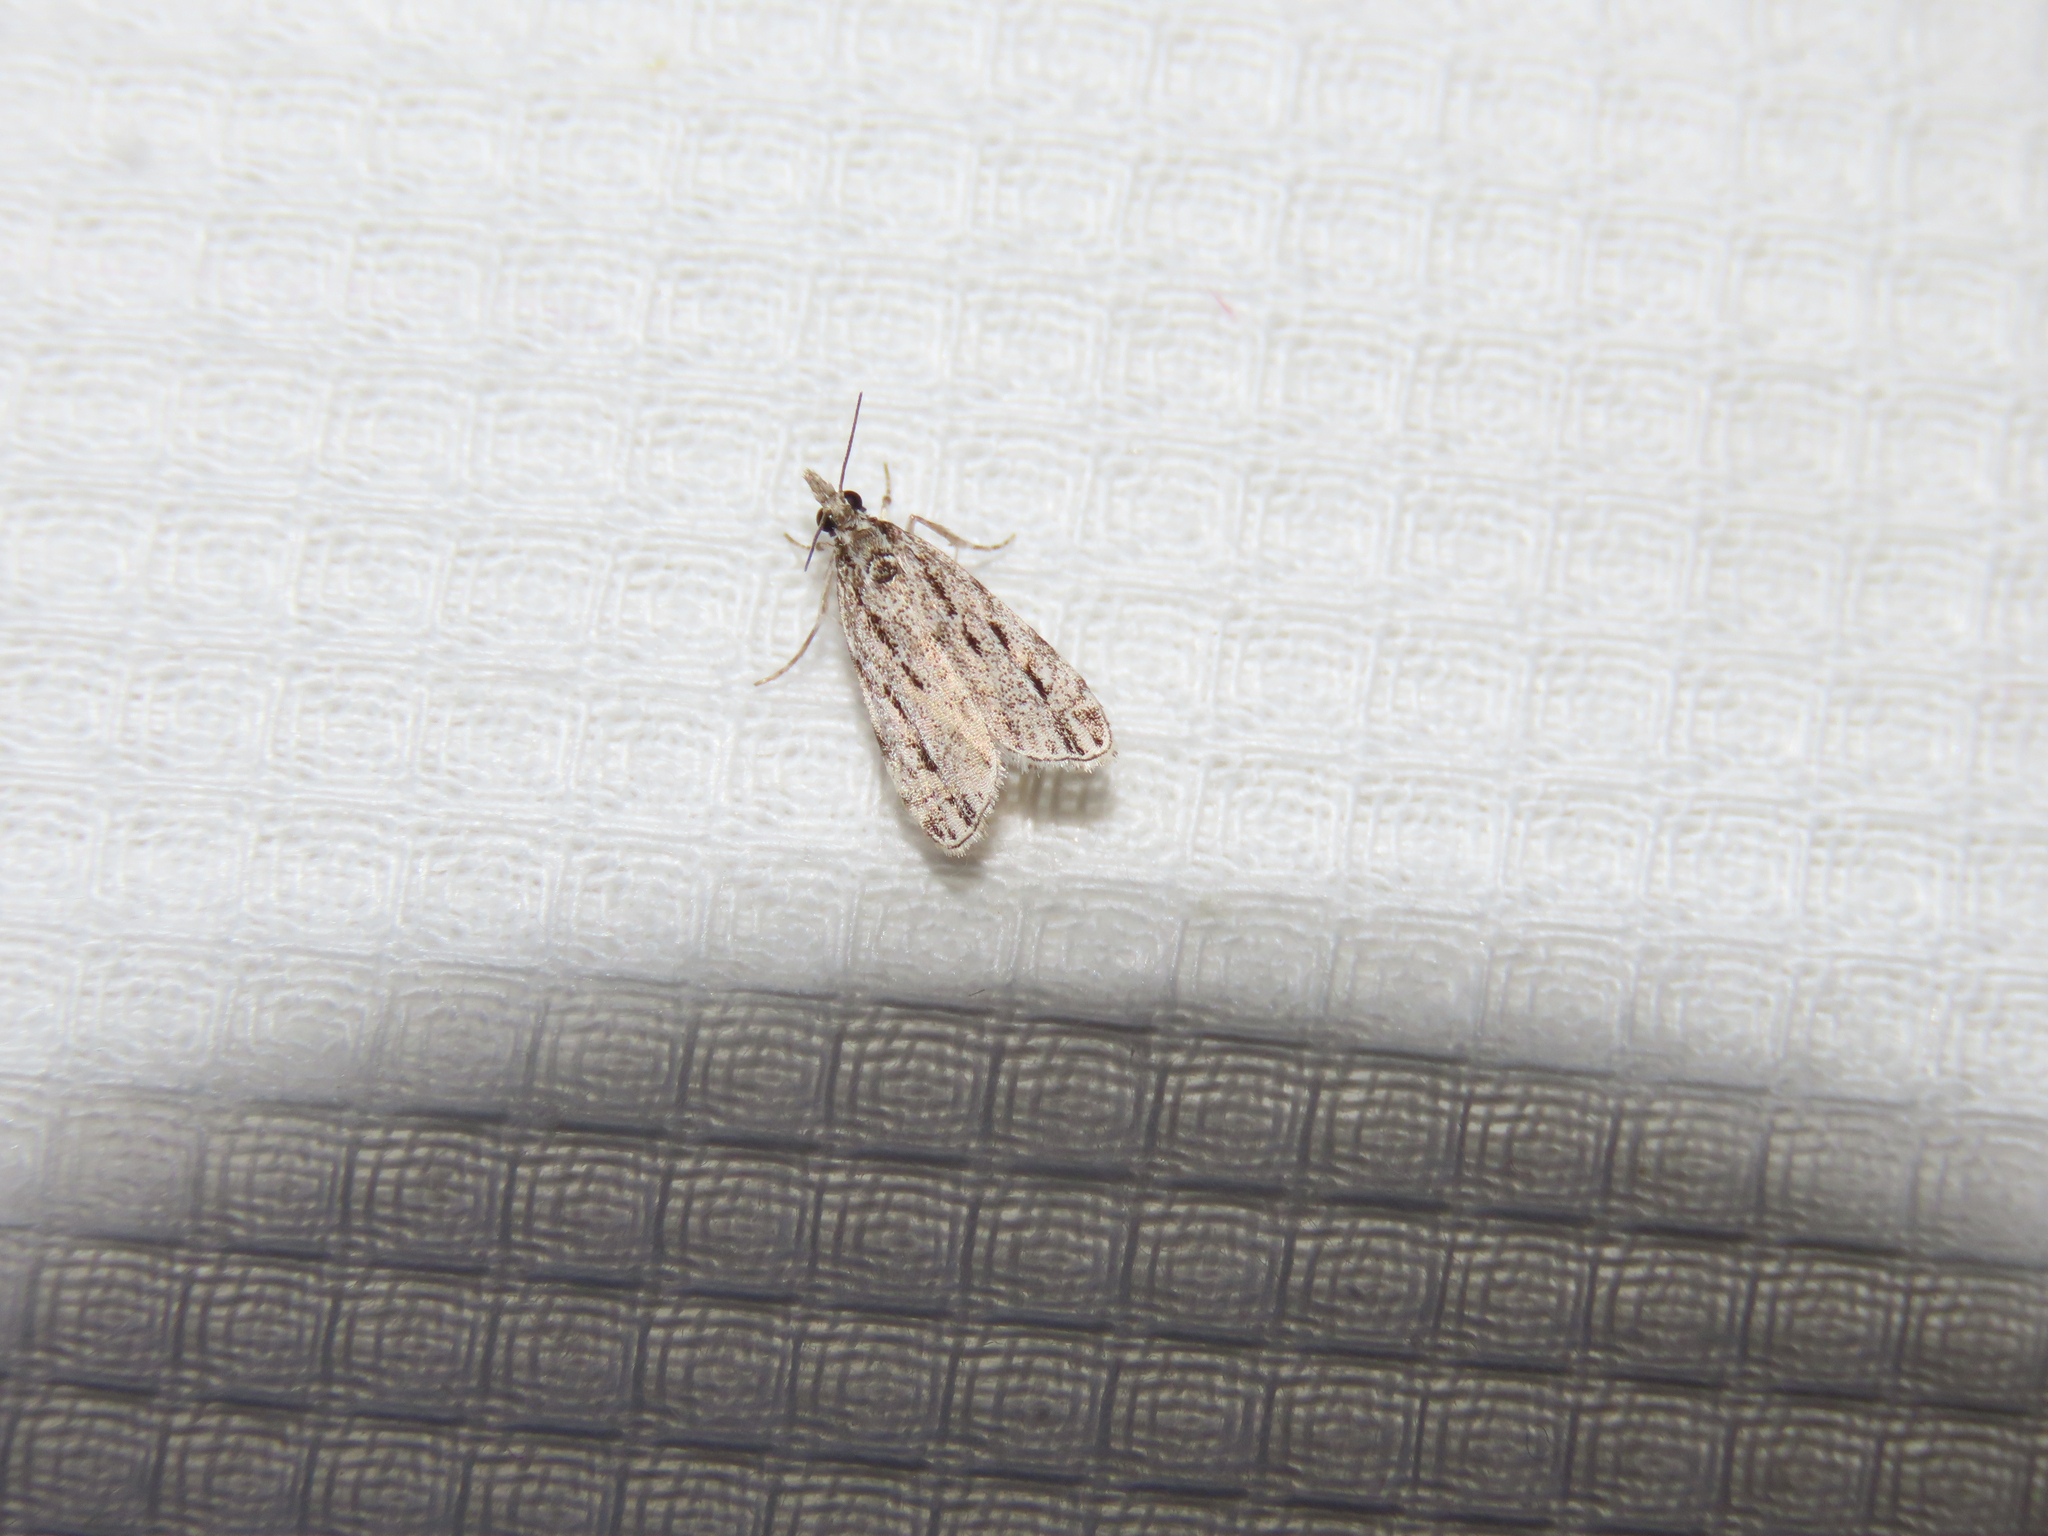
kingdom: Animalia
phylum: Arthropoda
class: Insecta
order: Lepidoptera
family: Crambidae
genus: Eudonia
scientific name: Eudonia strigalis
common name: Striped eudonia moth
